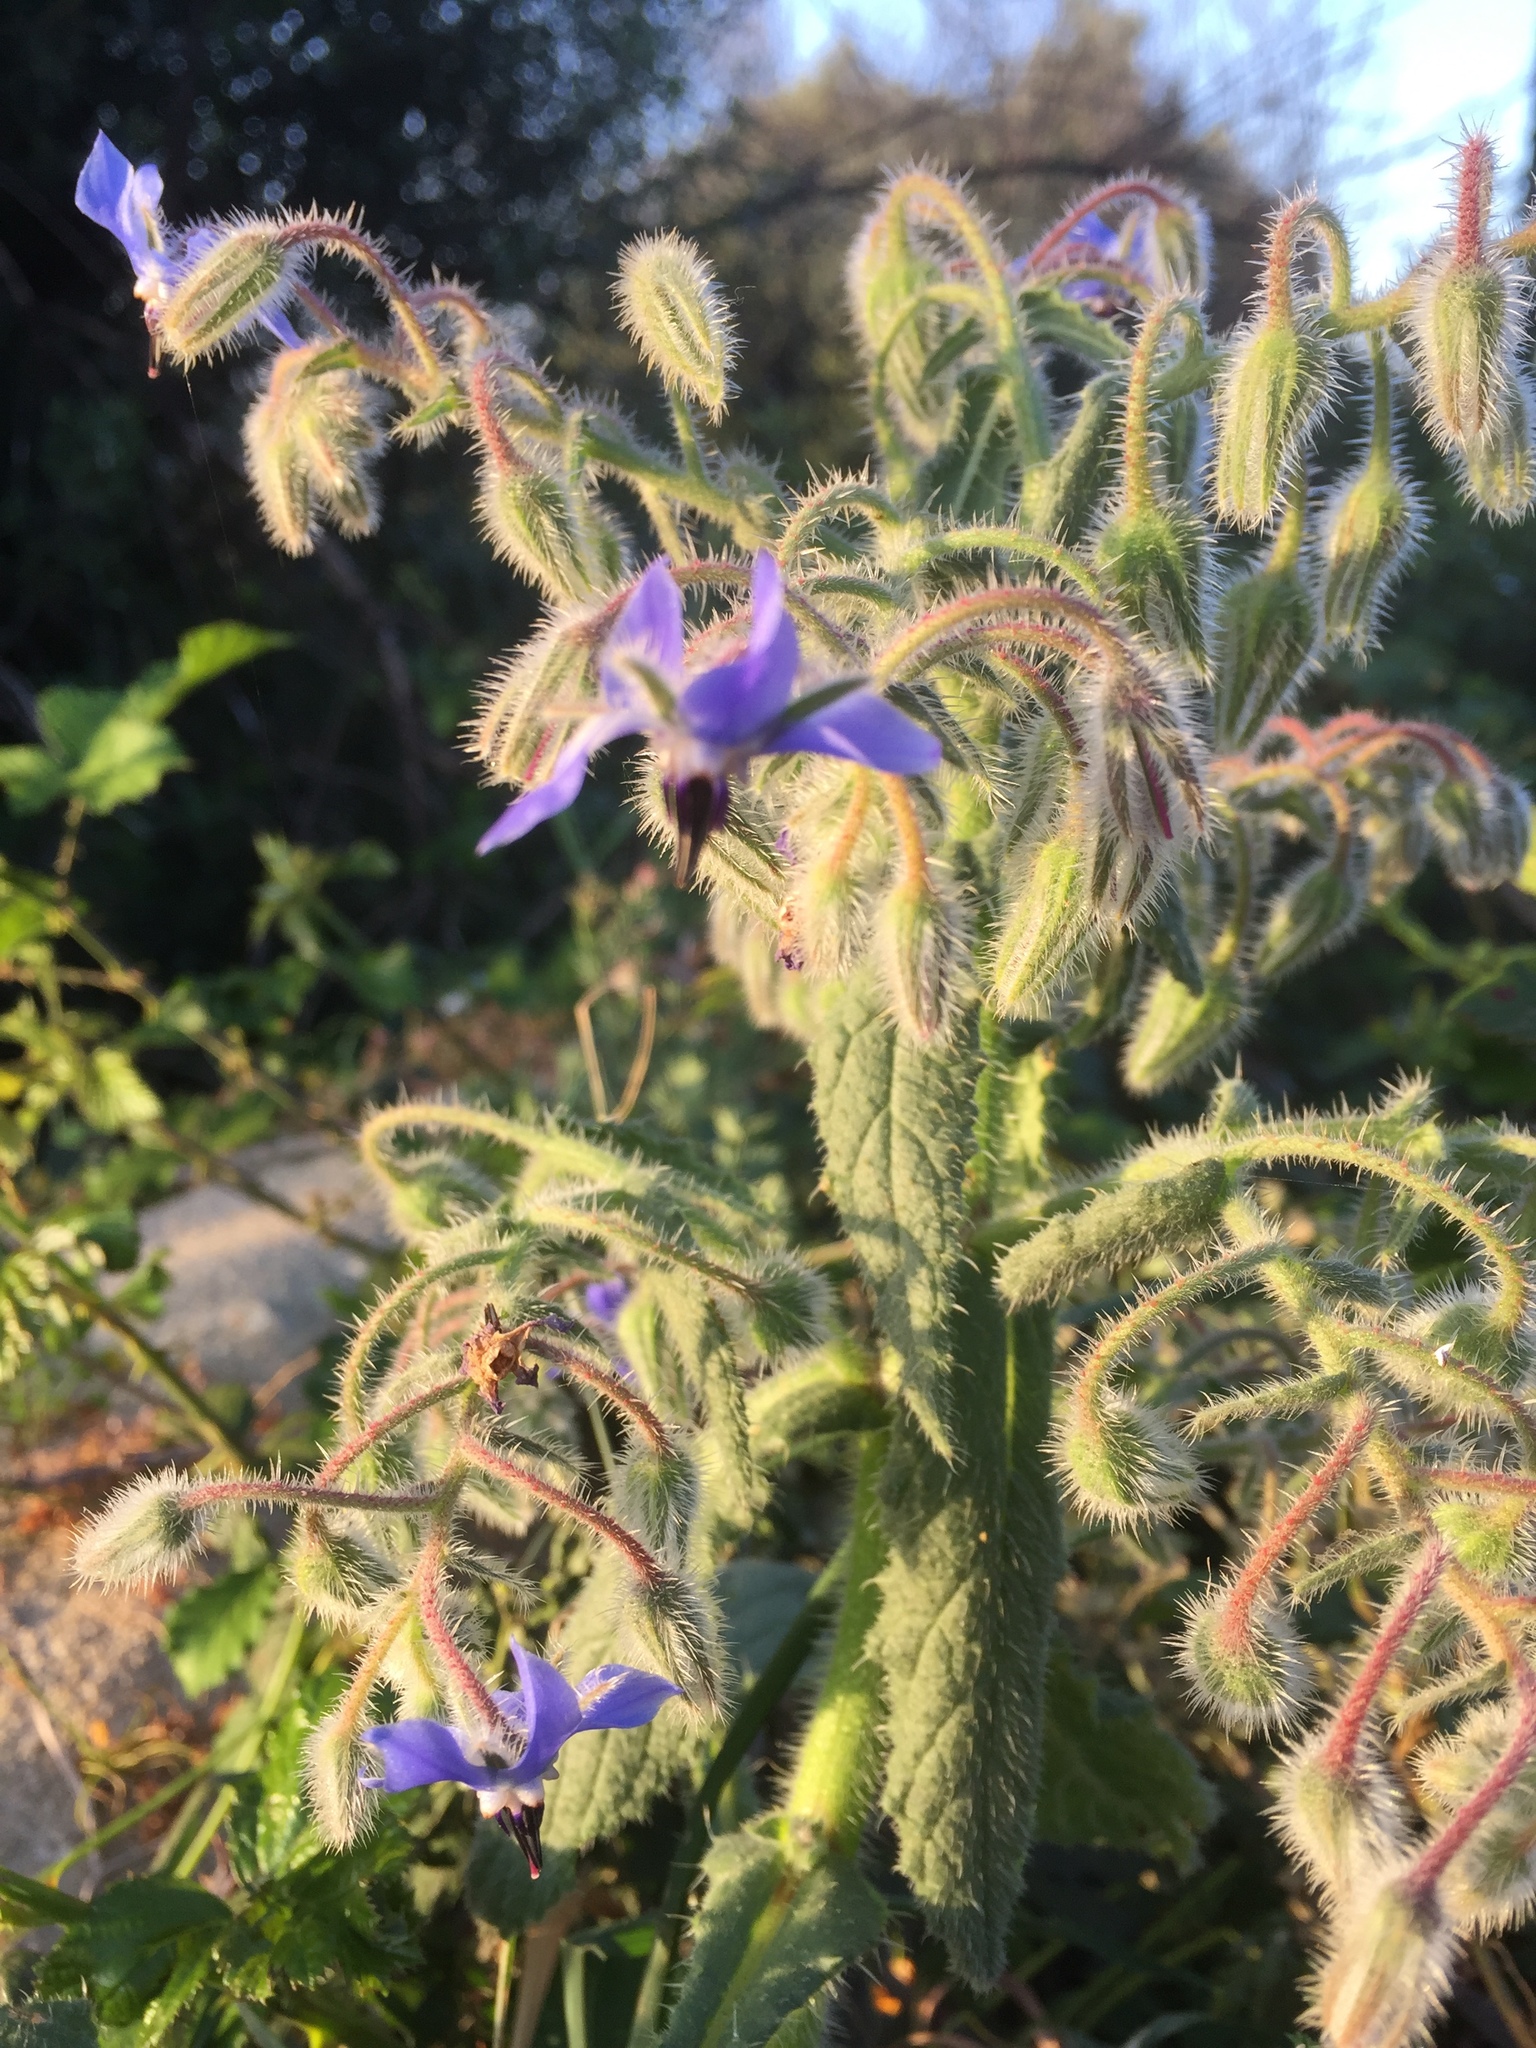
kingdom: Plantae
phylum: Tracheophyta
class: Magnoliopsida
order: Boraginales
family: Boraginaceae
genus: Borago
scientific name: Borago officinalis
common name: Borage
